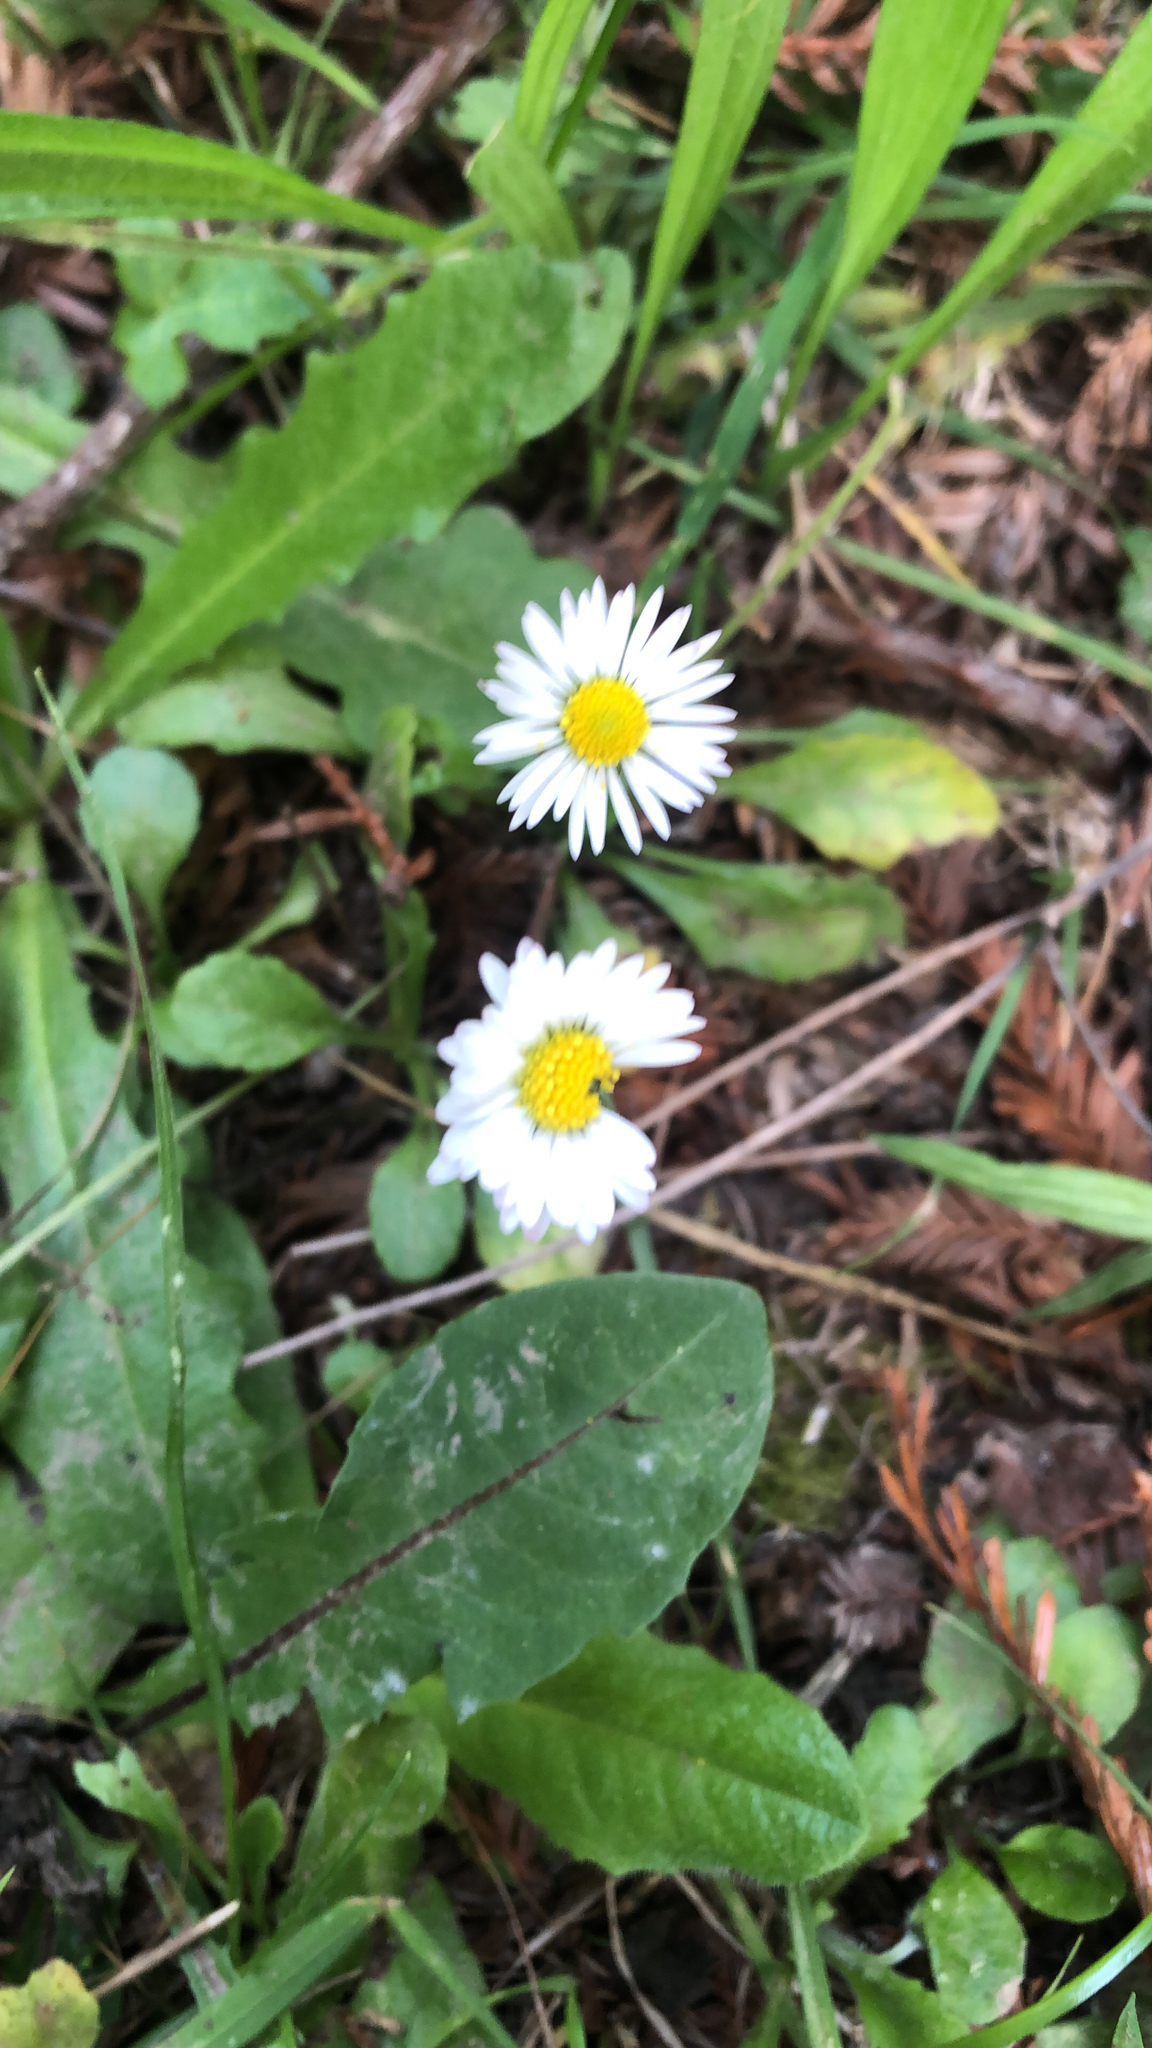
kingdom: Plantae
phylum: Tracheophyta
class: Magnoliopsida
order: Asterales
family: Asteraceae
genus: Bellis
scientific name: Bellis perennis
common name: Lawndaisy
